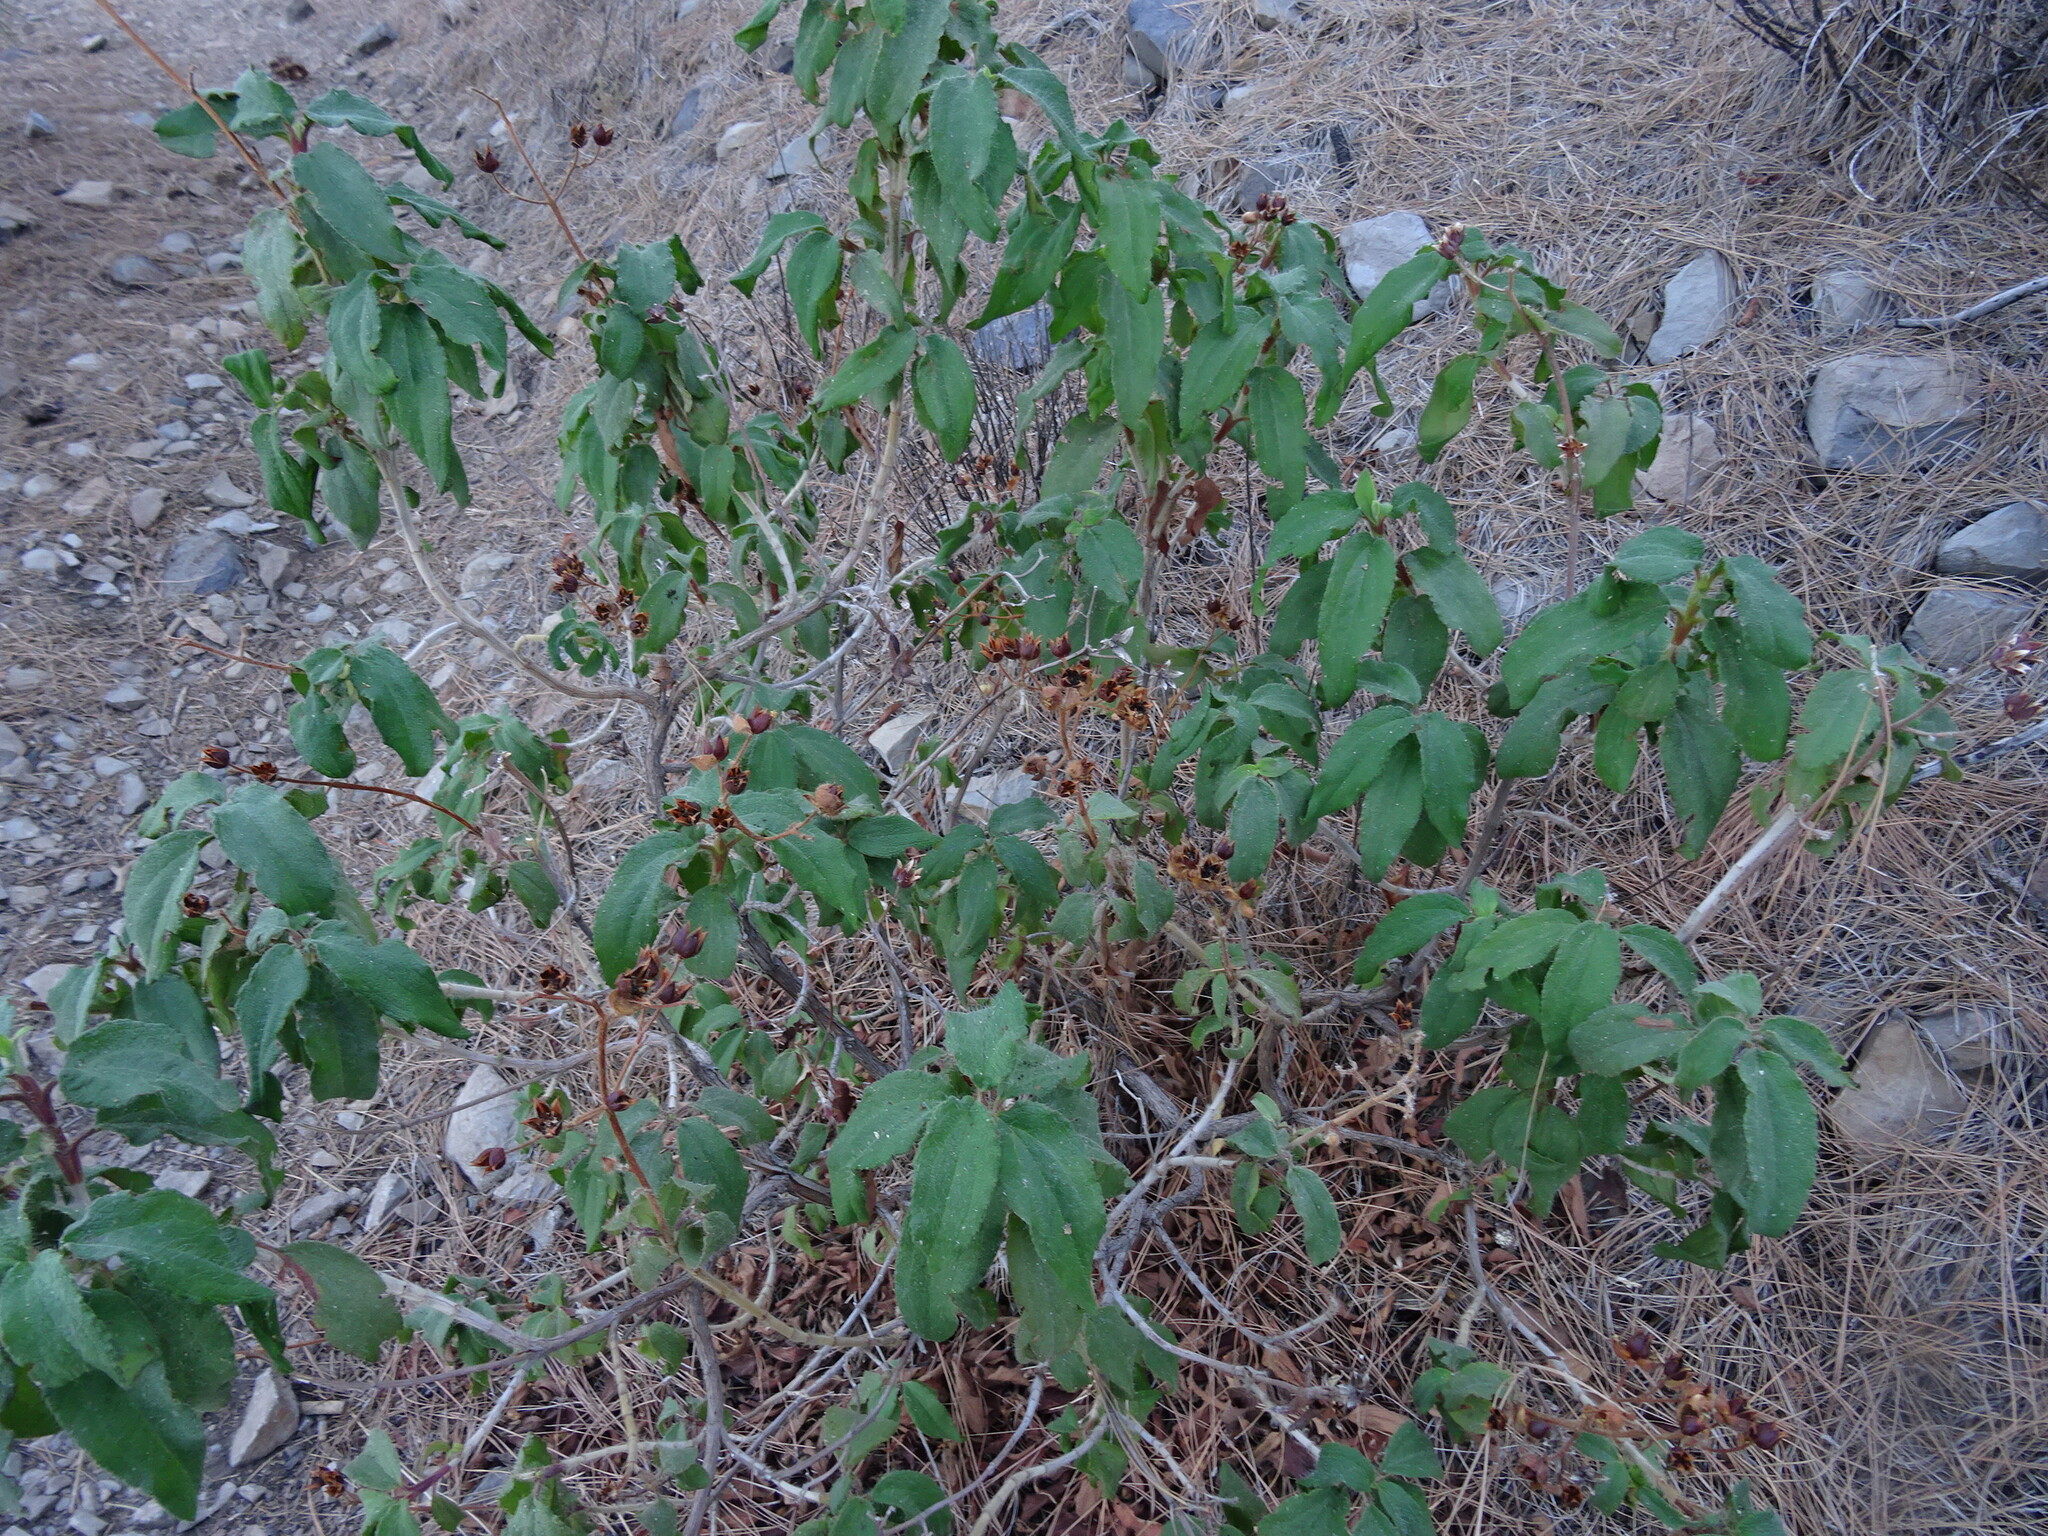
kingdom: Plantae
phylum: Tracheophyta
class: Magnoliopsida
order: Malvales
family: Cistaceae
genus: Cistus
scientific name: Cistus symphytifolius
